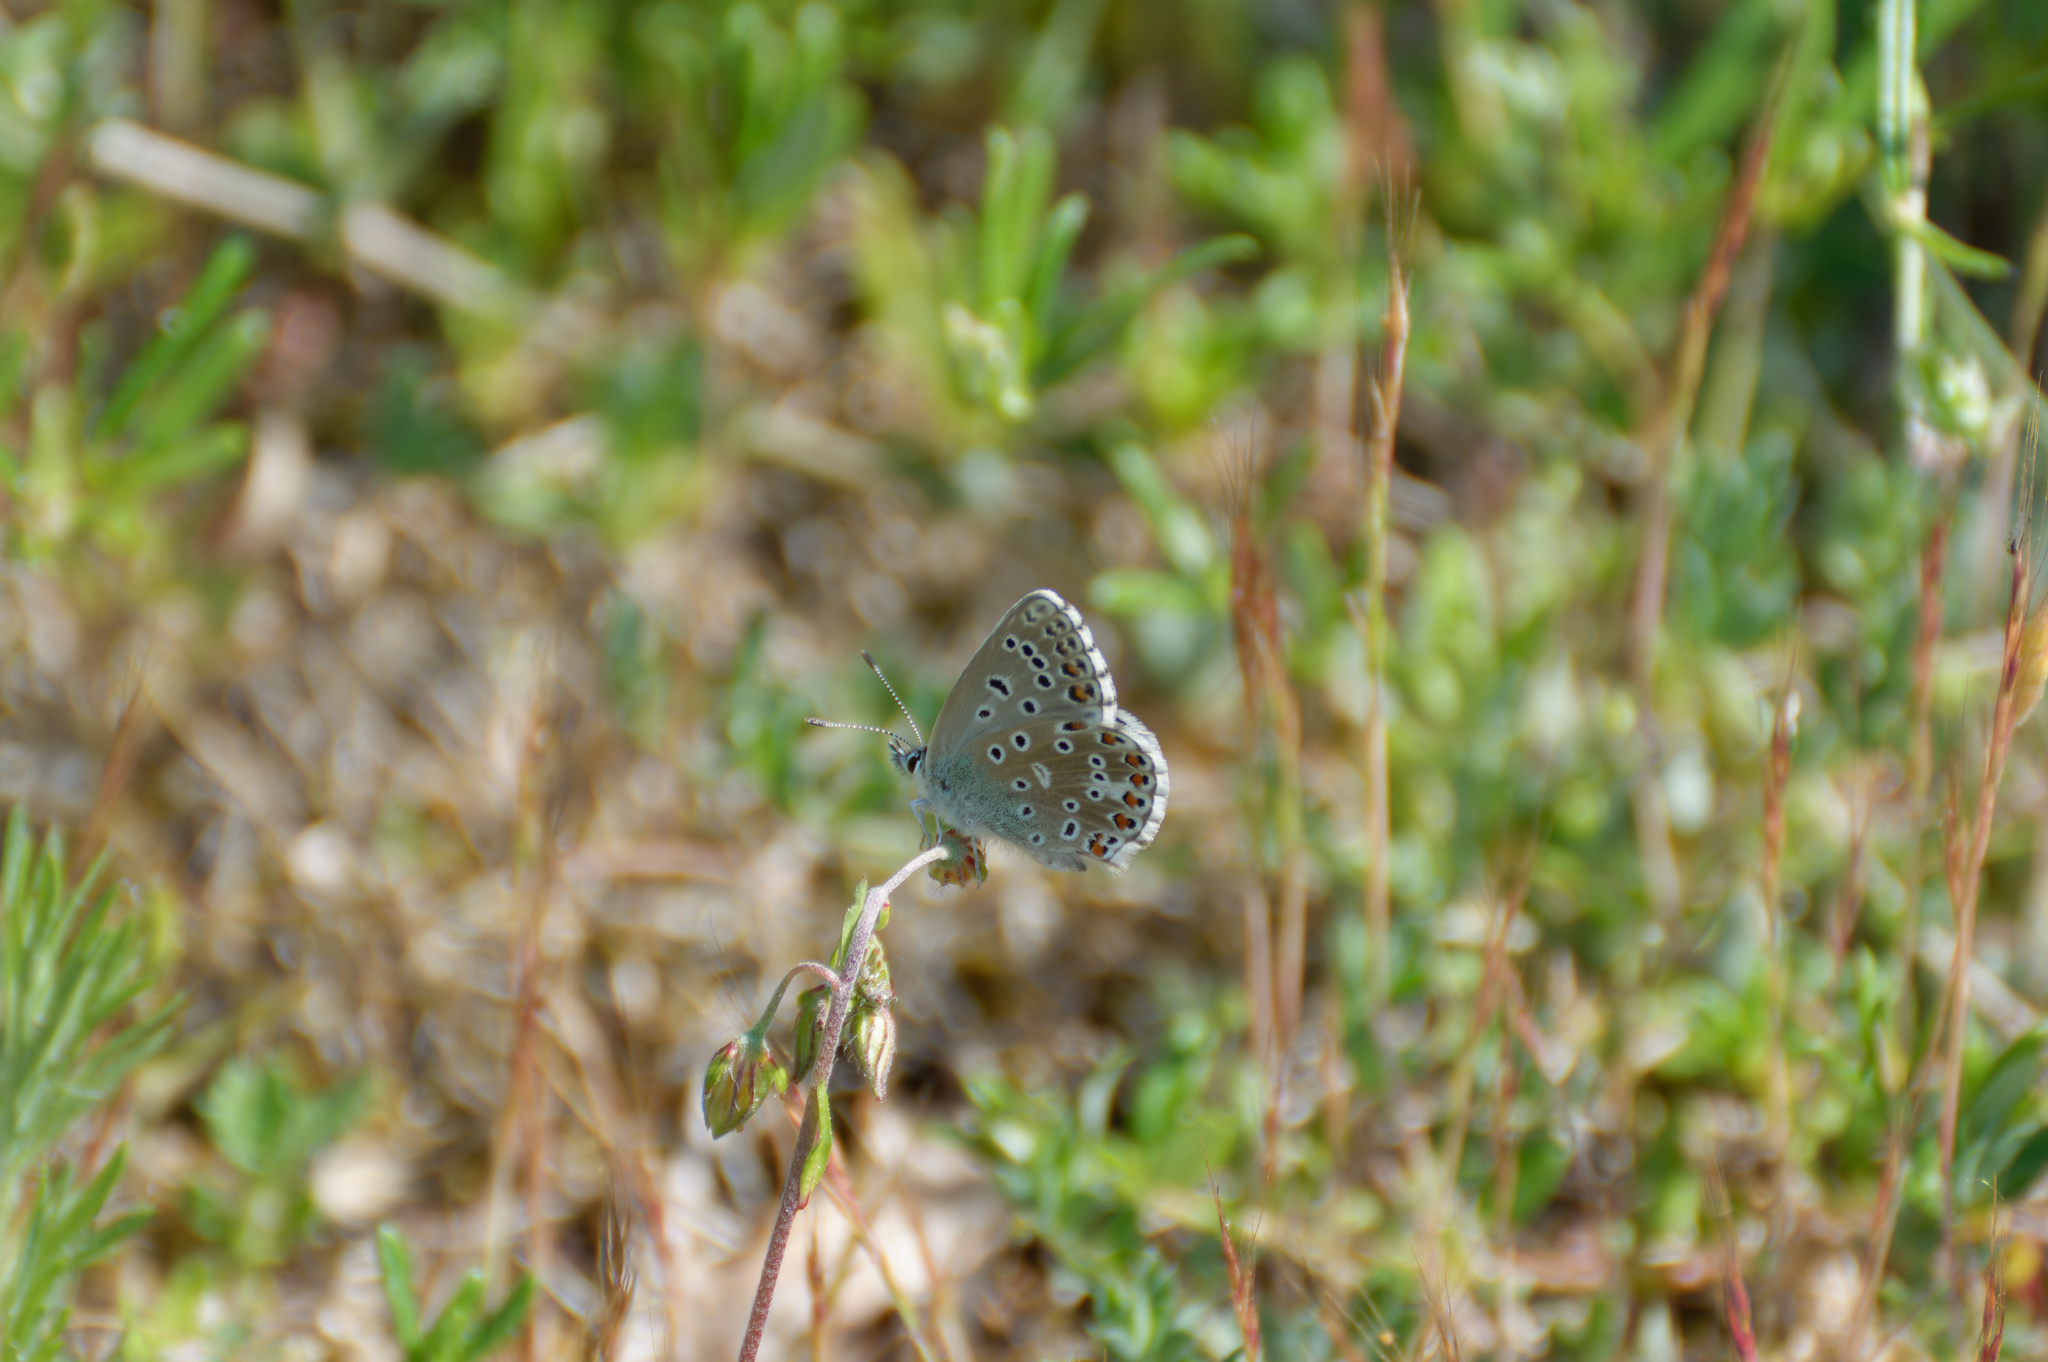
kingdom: Animalia
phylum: Arthropoda
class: Insecta
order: Lepidoptera
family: Lycaenidae
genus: Lysandra
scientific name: Lysandra bellargus
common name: Adonis blue
